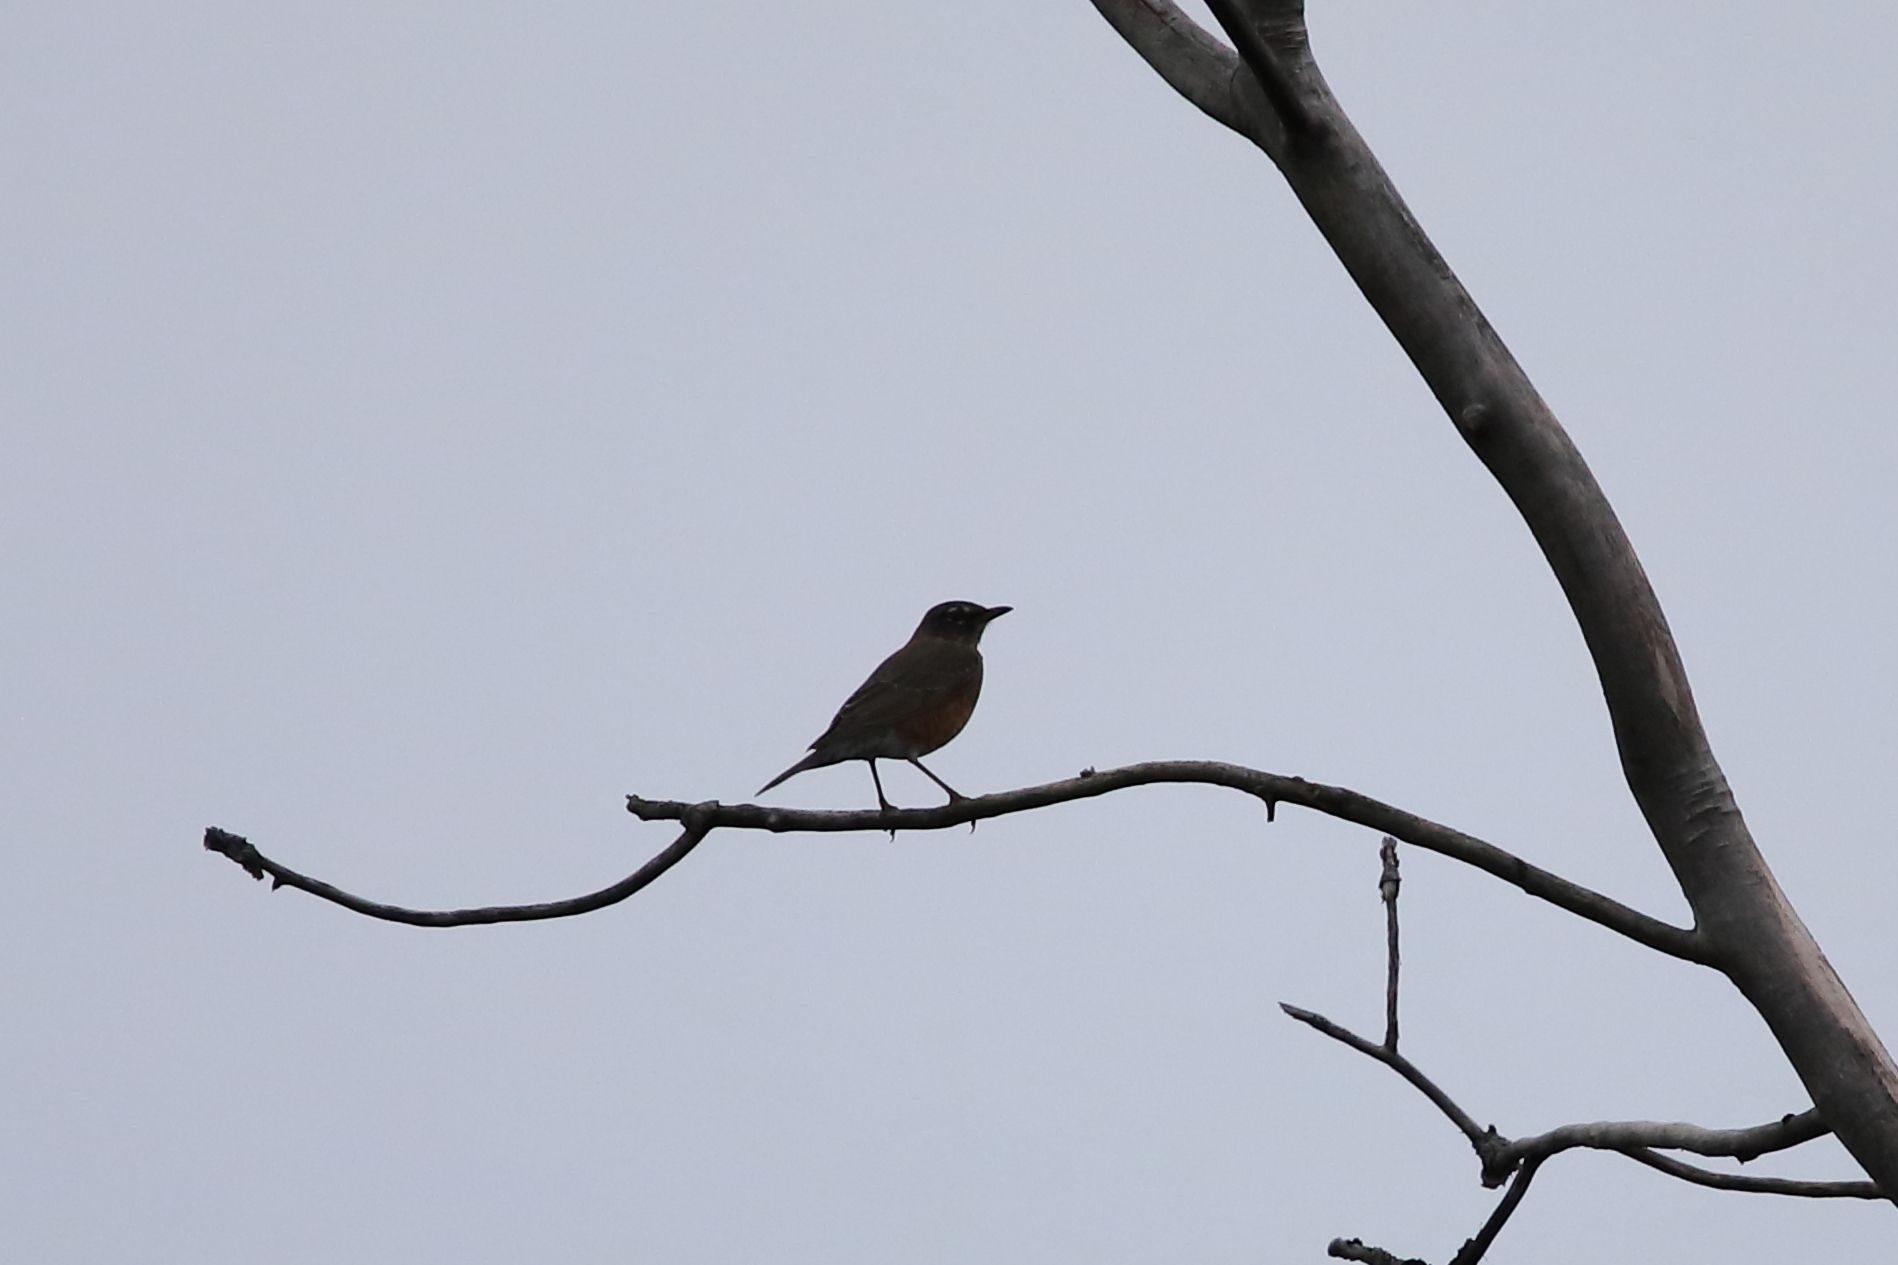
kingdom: Animalia
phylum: Chordata
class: Aves
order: Passeriformes
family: Turdidae
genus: Turdus
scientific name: Turdus migratorius
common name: American robin
